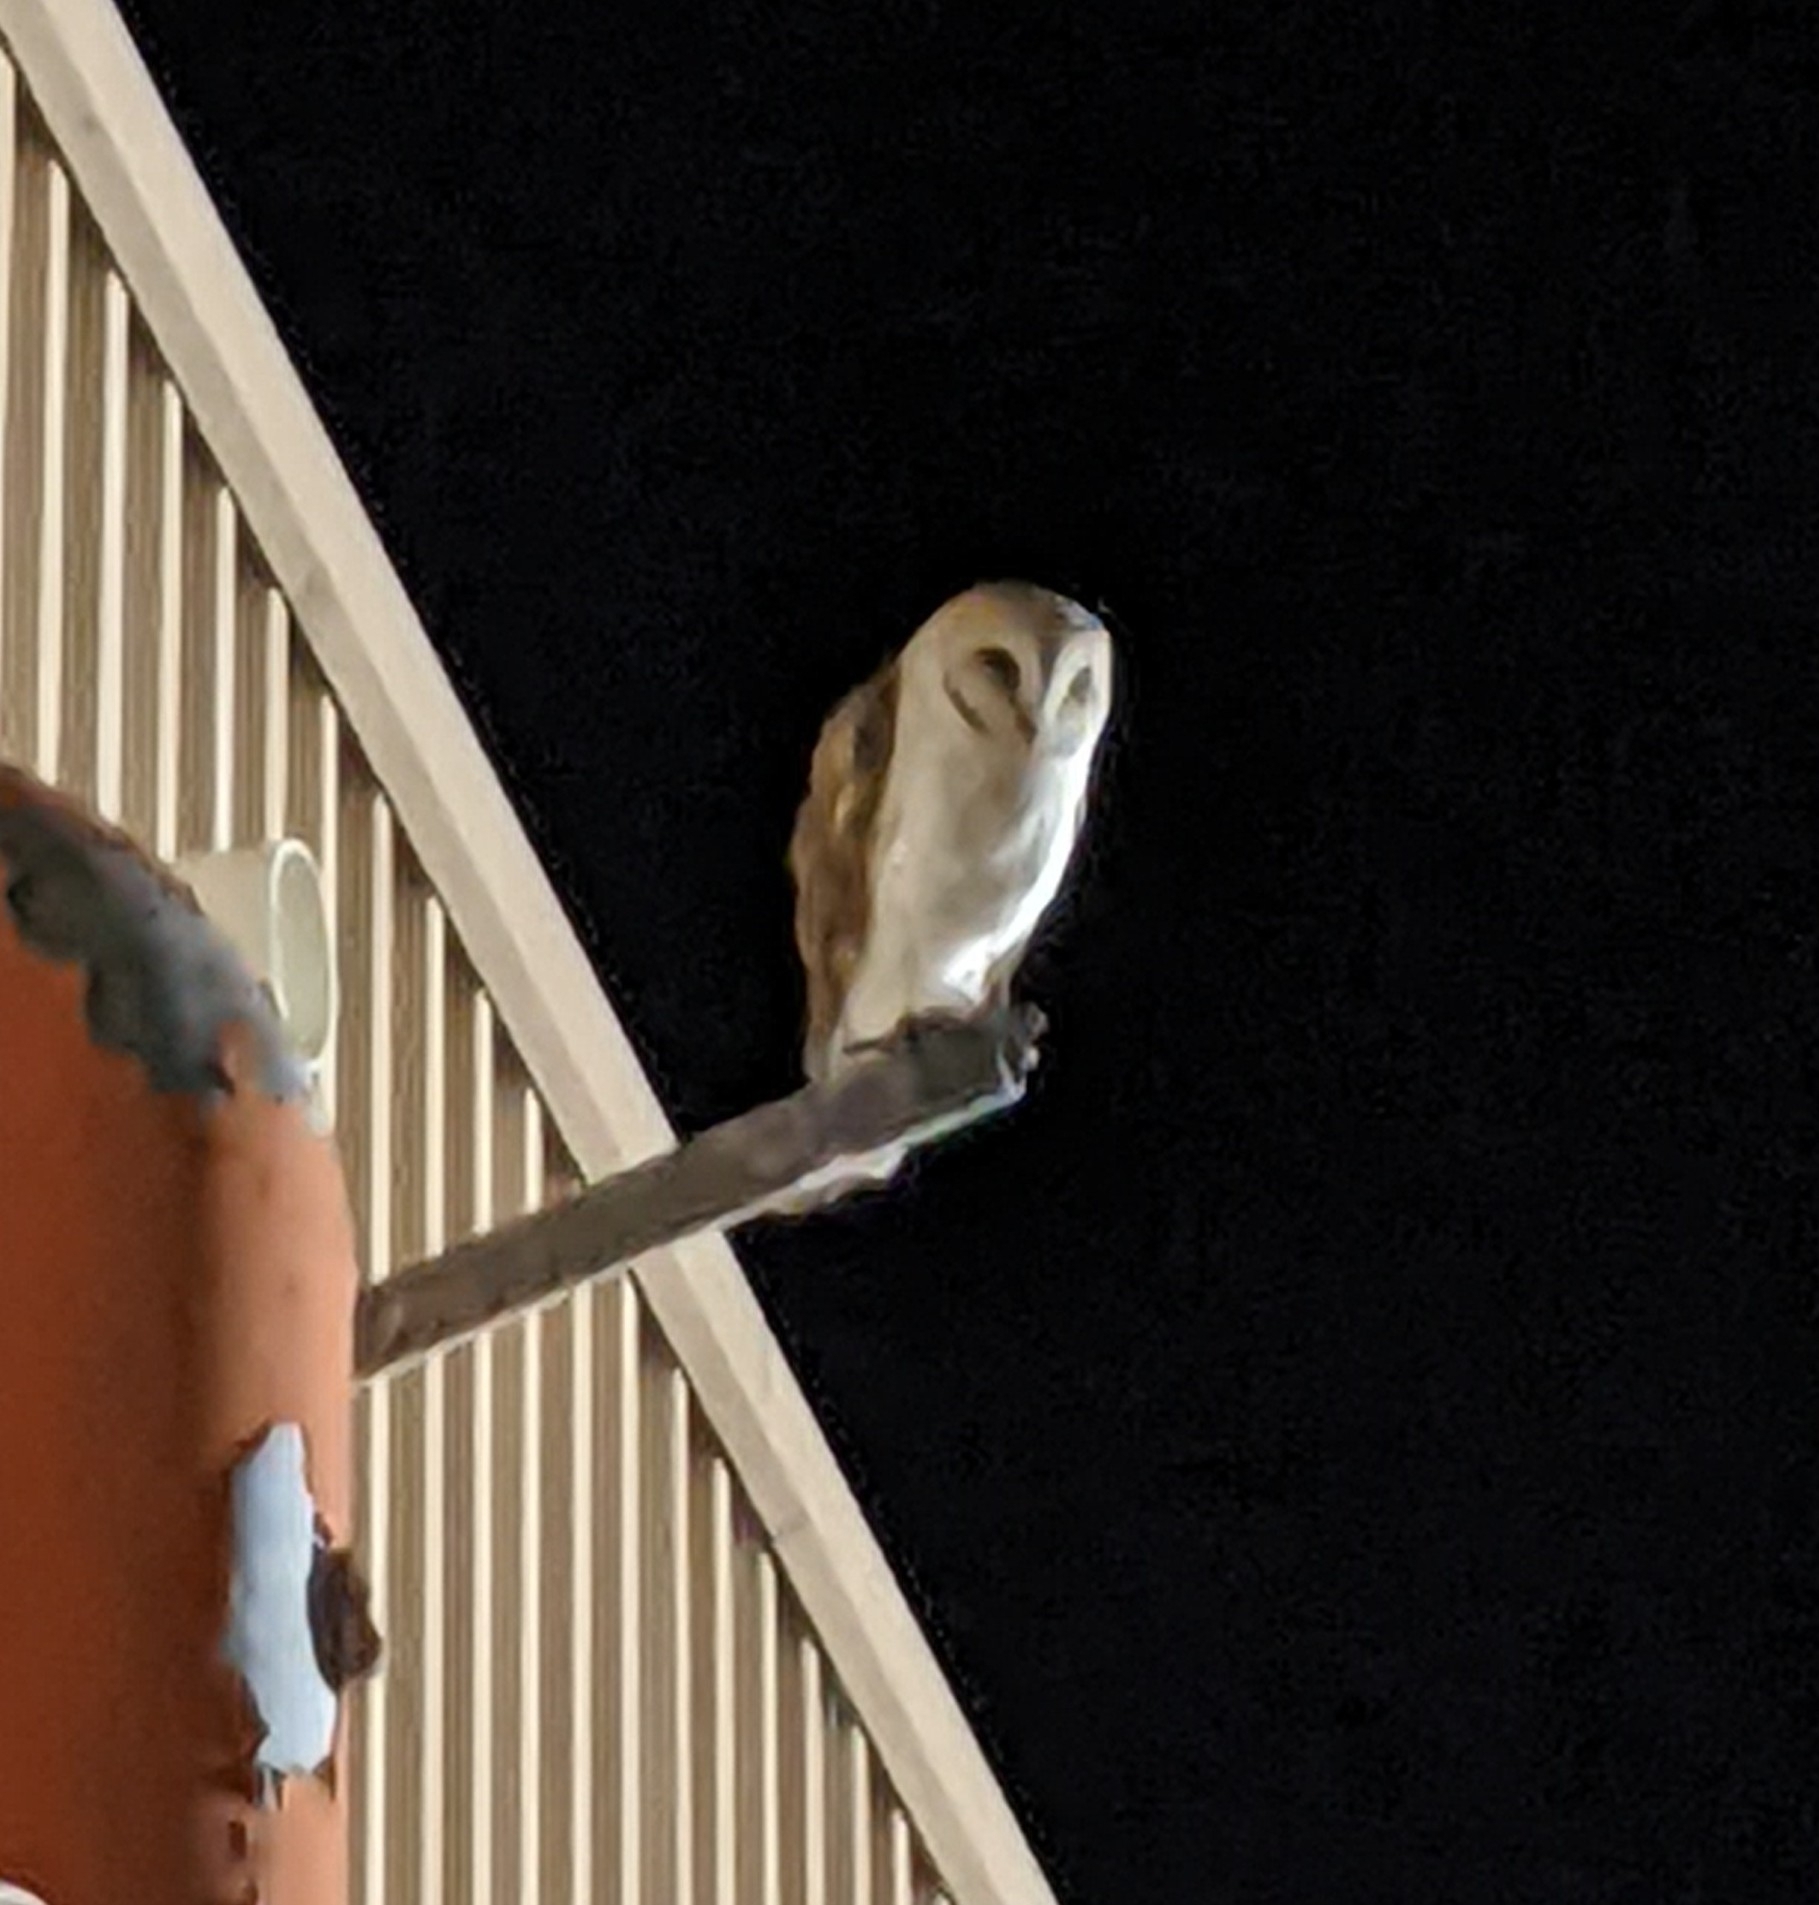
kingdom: Animalia
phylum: Chordata
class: Aves
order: Strigiformes
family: Tytonidae
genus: Tyto
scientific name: Tyto alba
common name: Barn owl
